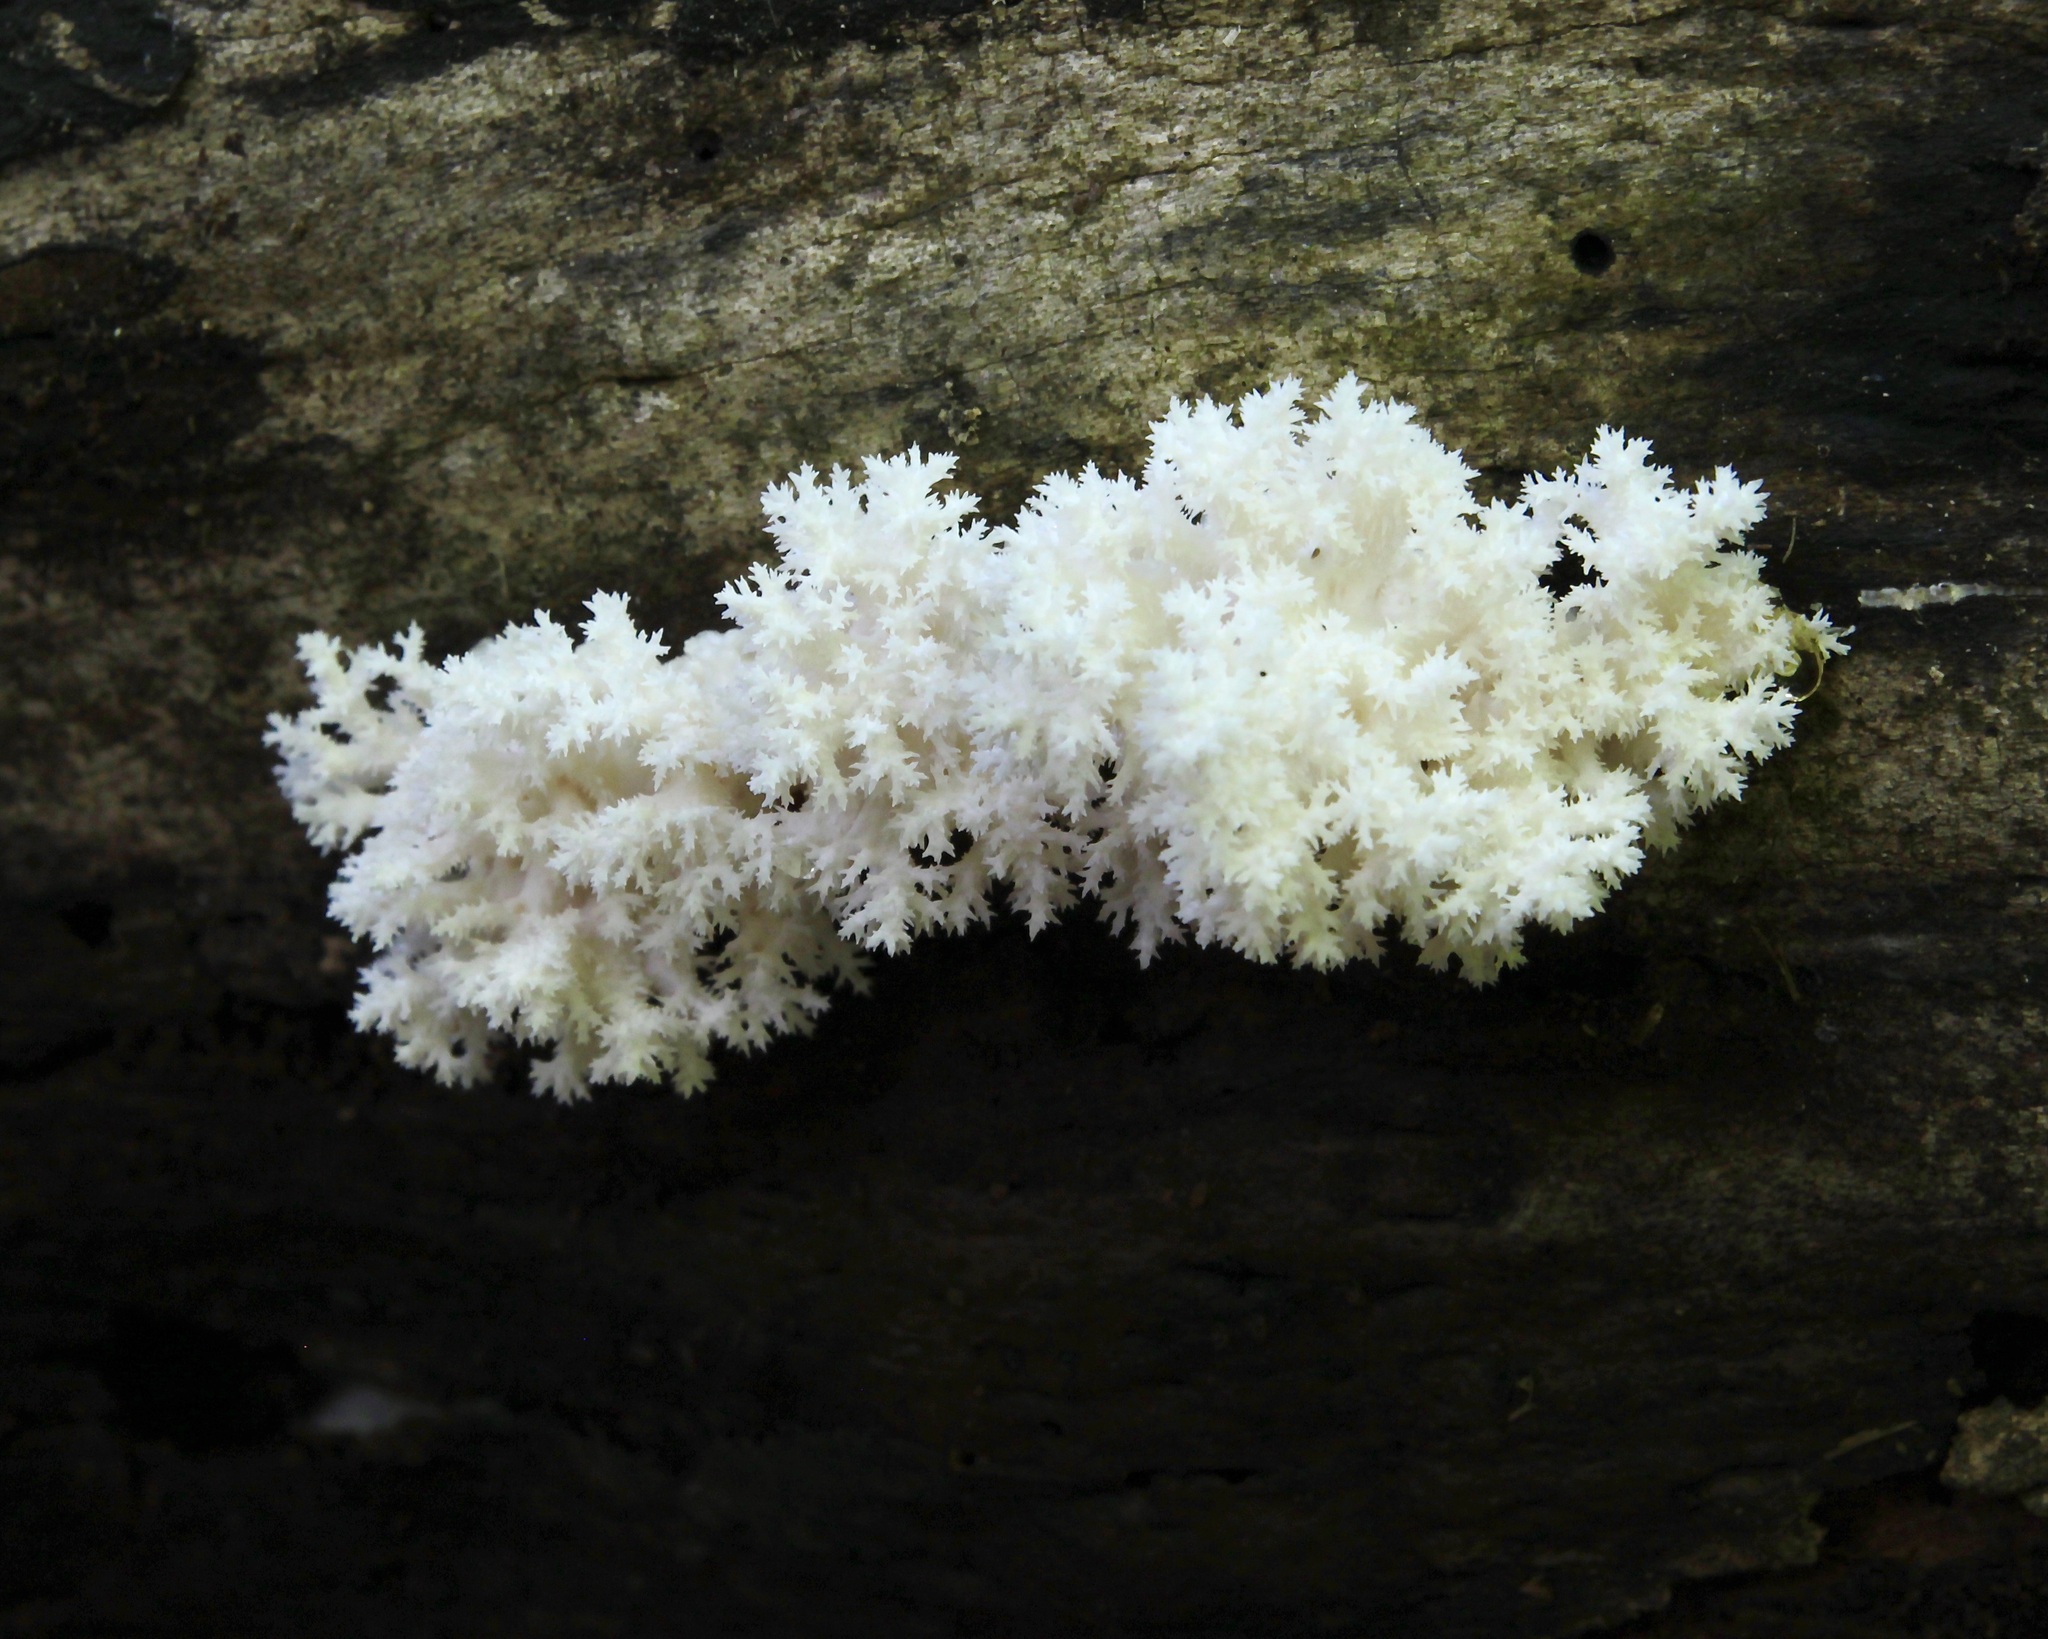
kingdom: Fungi
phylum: Basidiomycota
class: Agaricomycetes
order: Russulales
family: Hericiaceae
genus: Hericium
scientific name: Hericium coralloides
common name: Coral tooth
